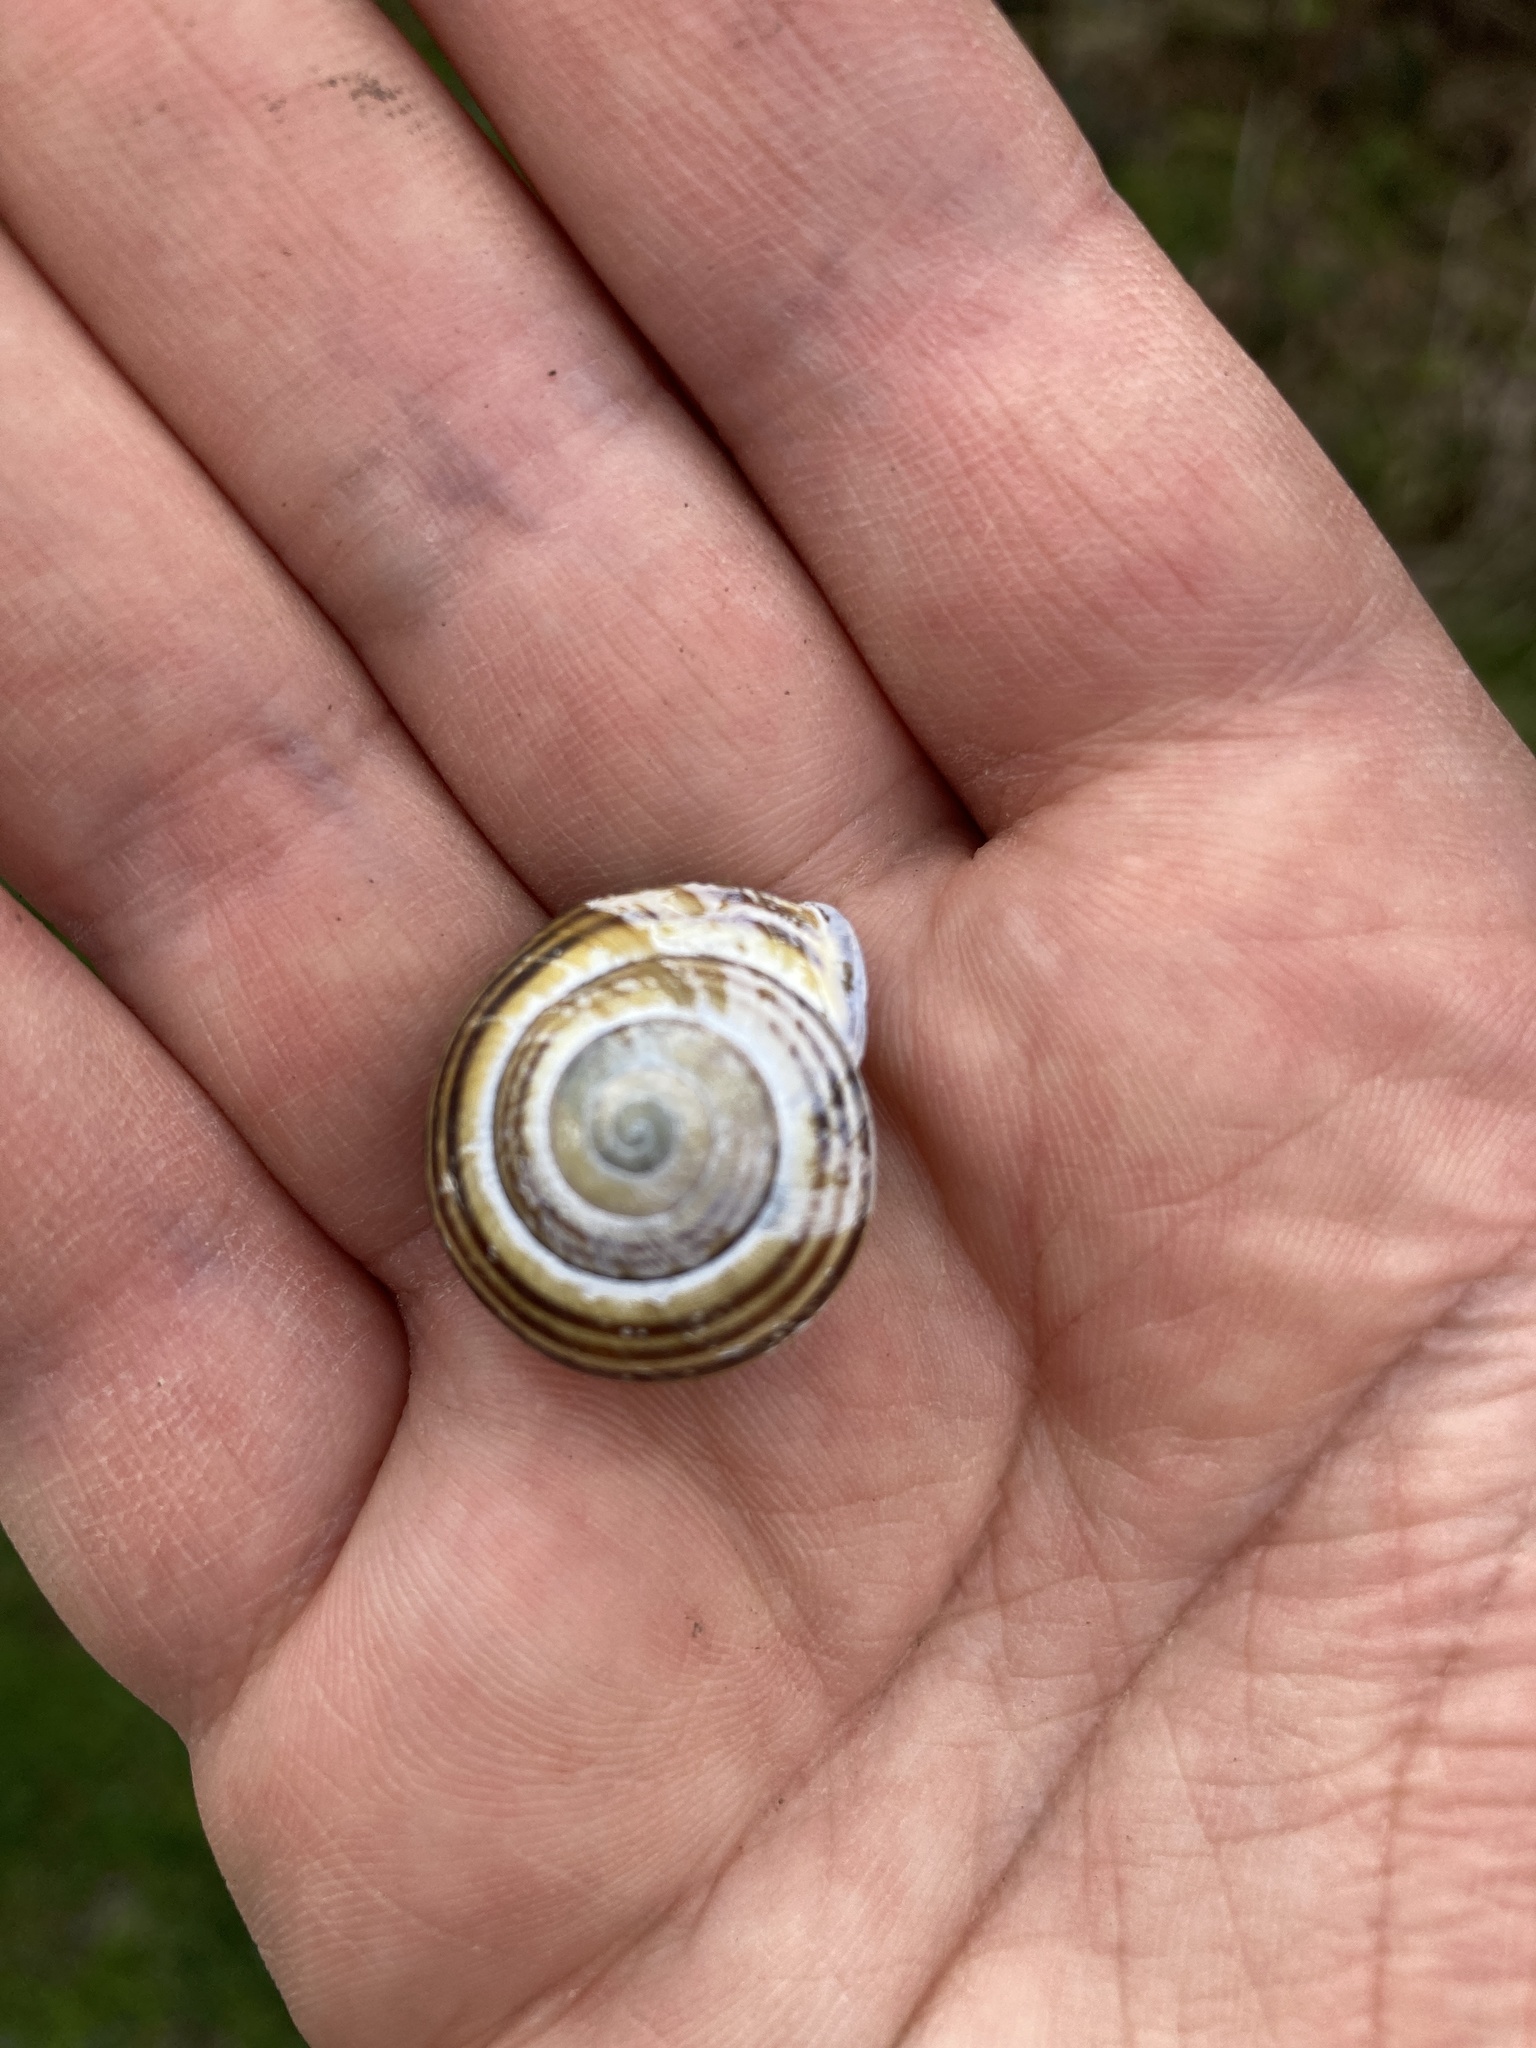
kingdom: Animalia
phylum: Mollusca
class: Gastropoda
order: Stylommatophora
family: Helicidae
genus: Cepaea
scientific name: Cepaea nemoralis
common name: Grovesnail
